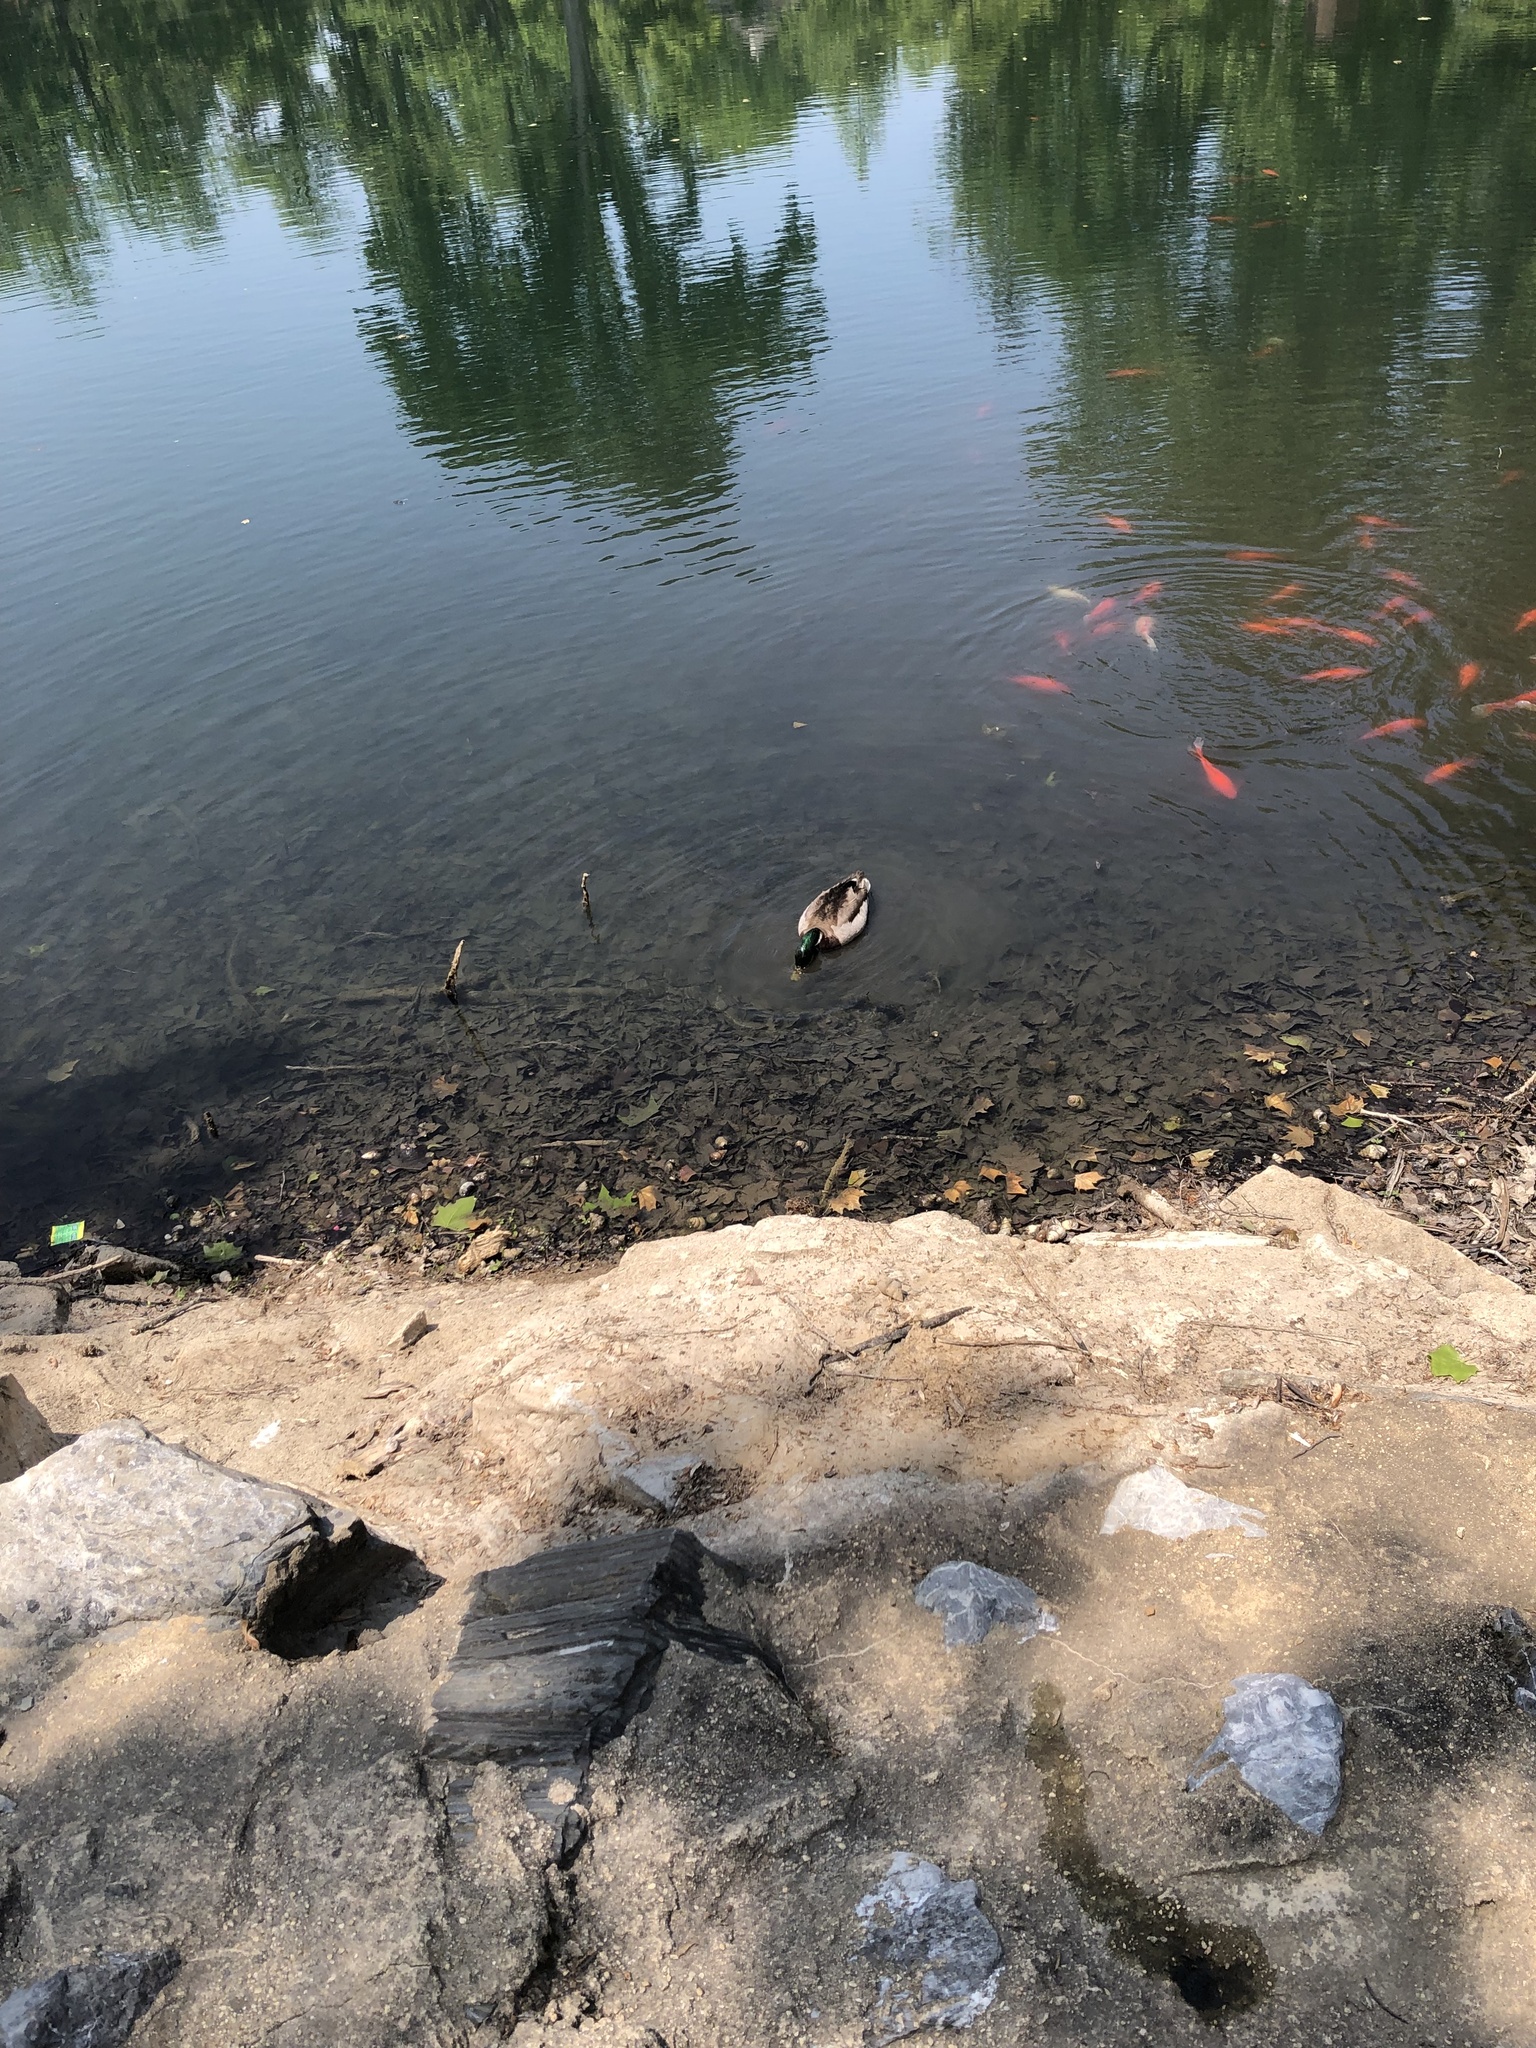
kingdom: Animalia
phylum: Chordata
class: Aves
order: Anseriformes
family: Anatidae
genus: Anas
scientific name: Anas platyrhynchos
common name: Mallard
